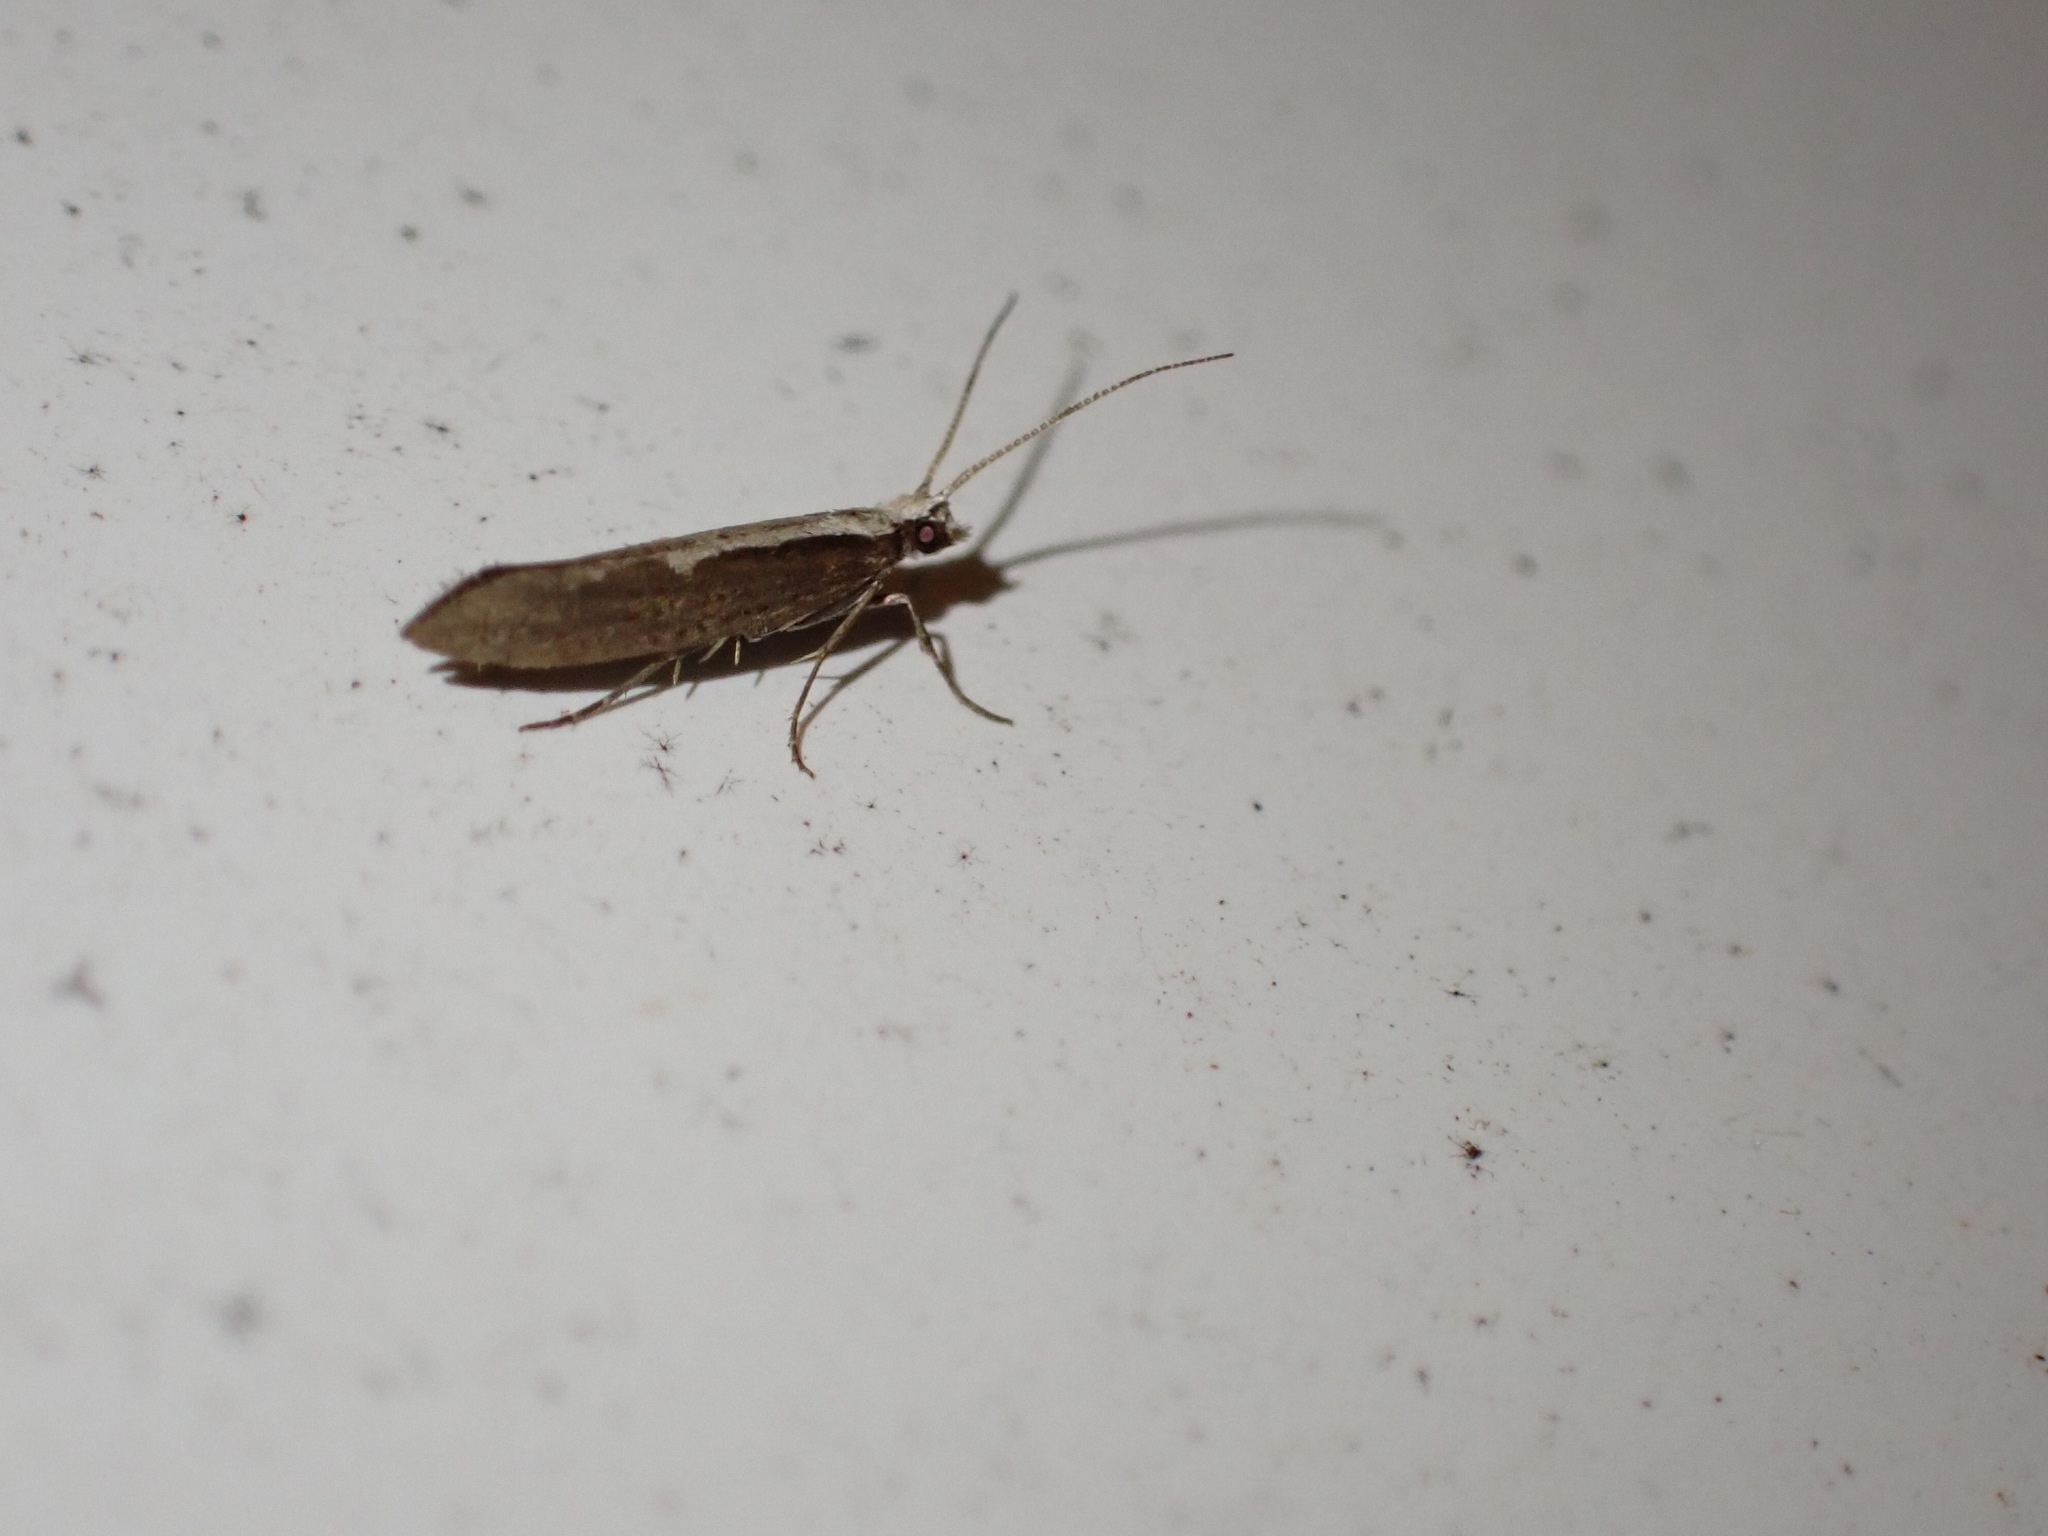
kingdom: Animalia
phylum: Arthropoda
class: Insecta
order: Lepidoptera
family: Plutellidae
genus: Plutella
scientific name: Plutella xylostella
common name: Diamond-back moth
